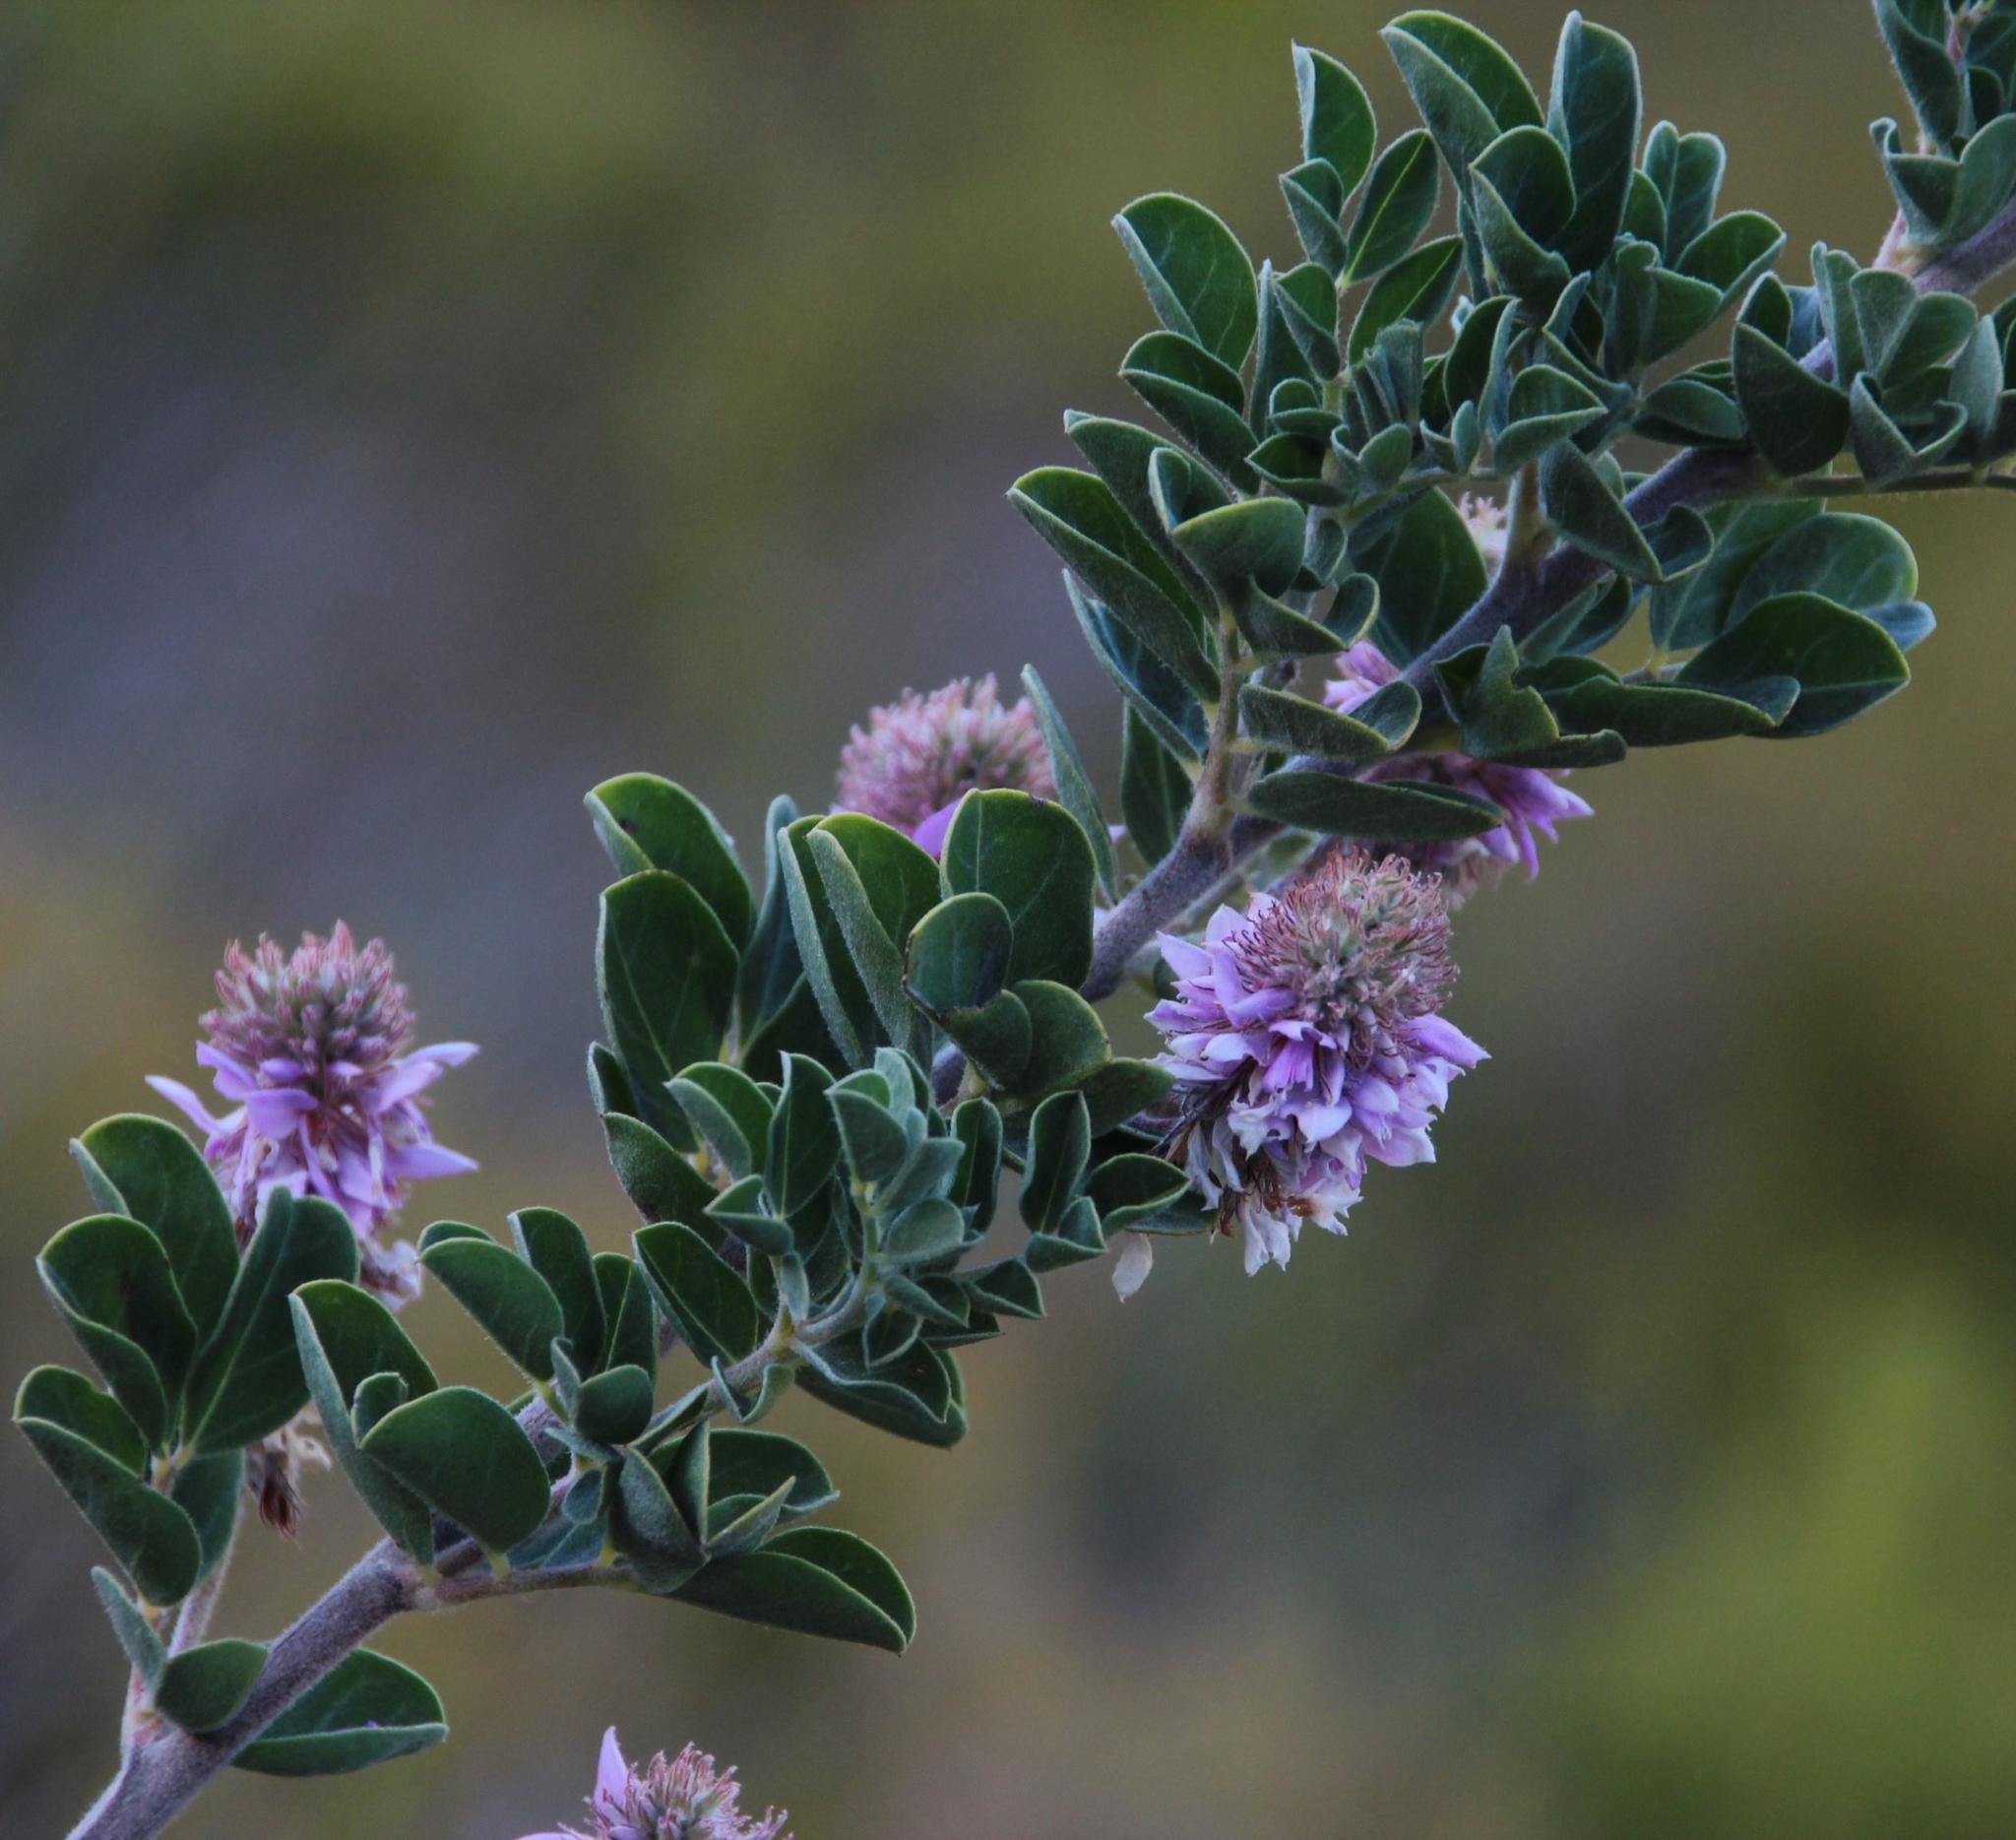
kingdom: Plantae
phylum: Tracheophyta
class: Magnoliopsida
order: Fabales
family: Fabaceae
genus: Indigofera
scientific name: Indigofera superba
